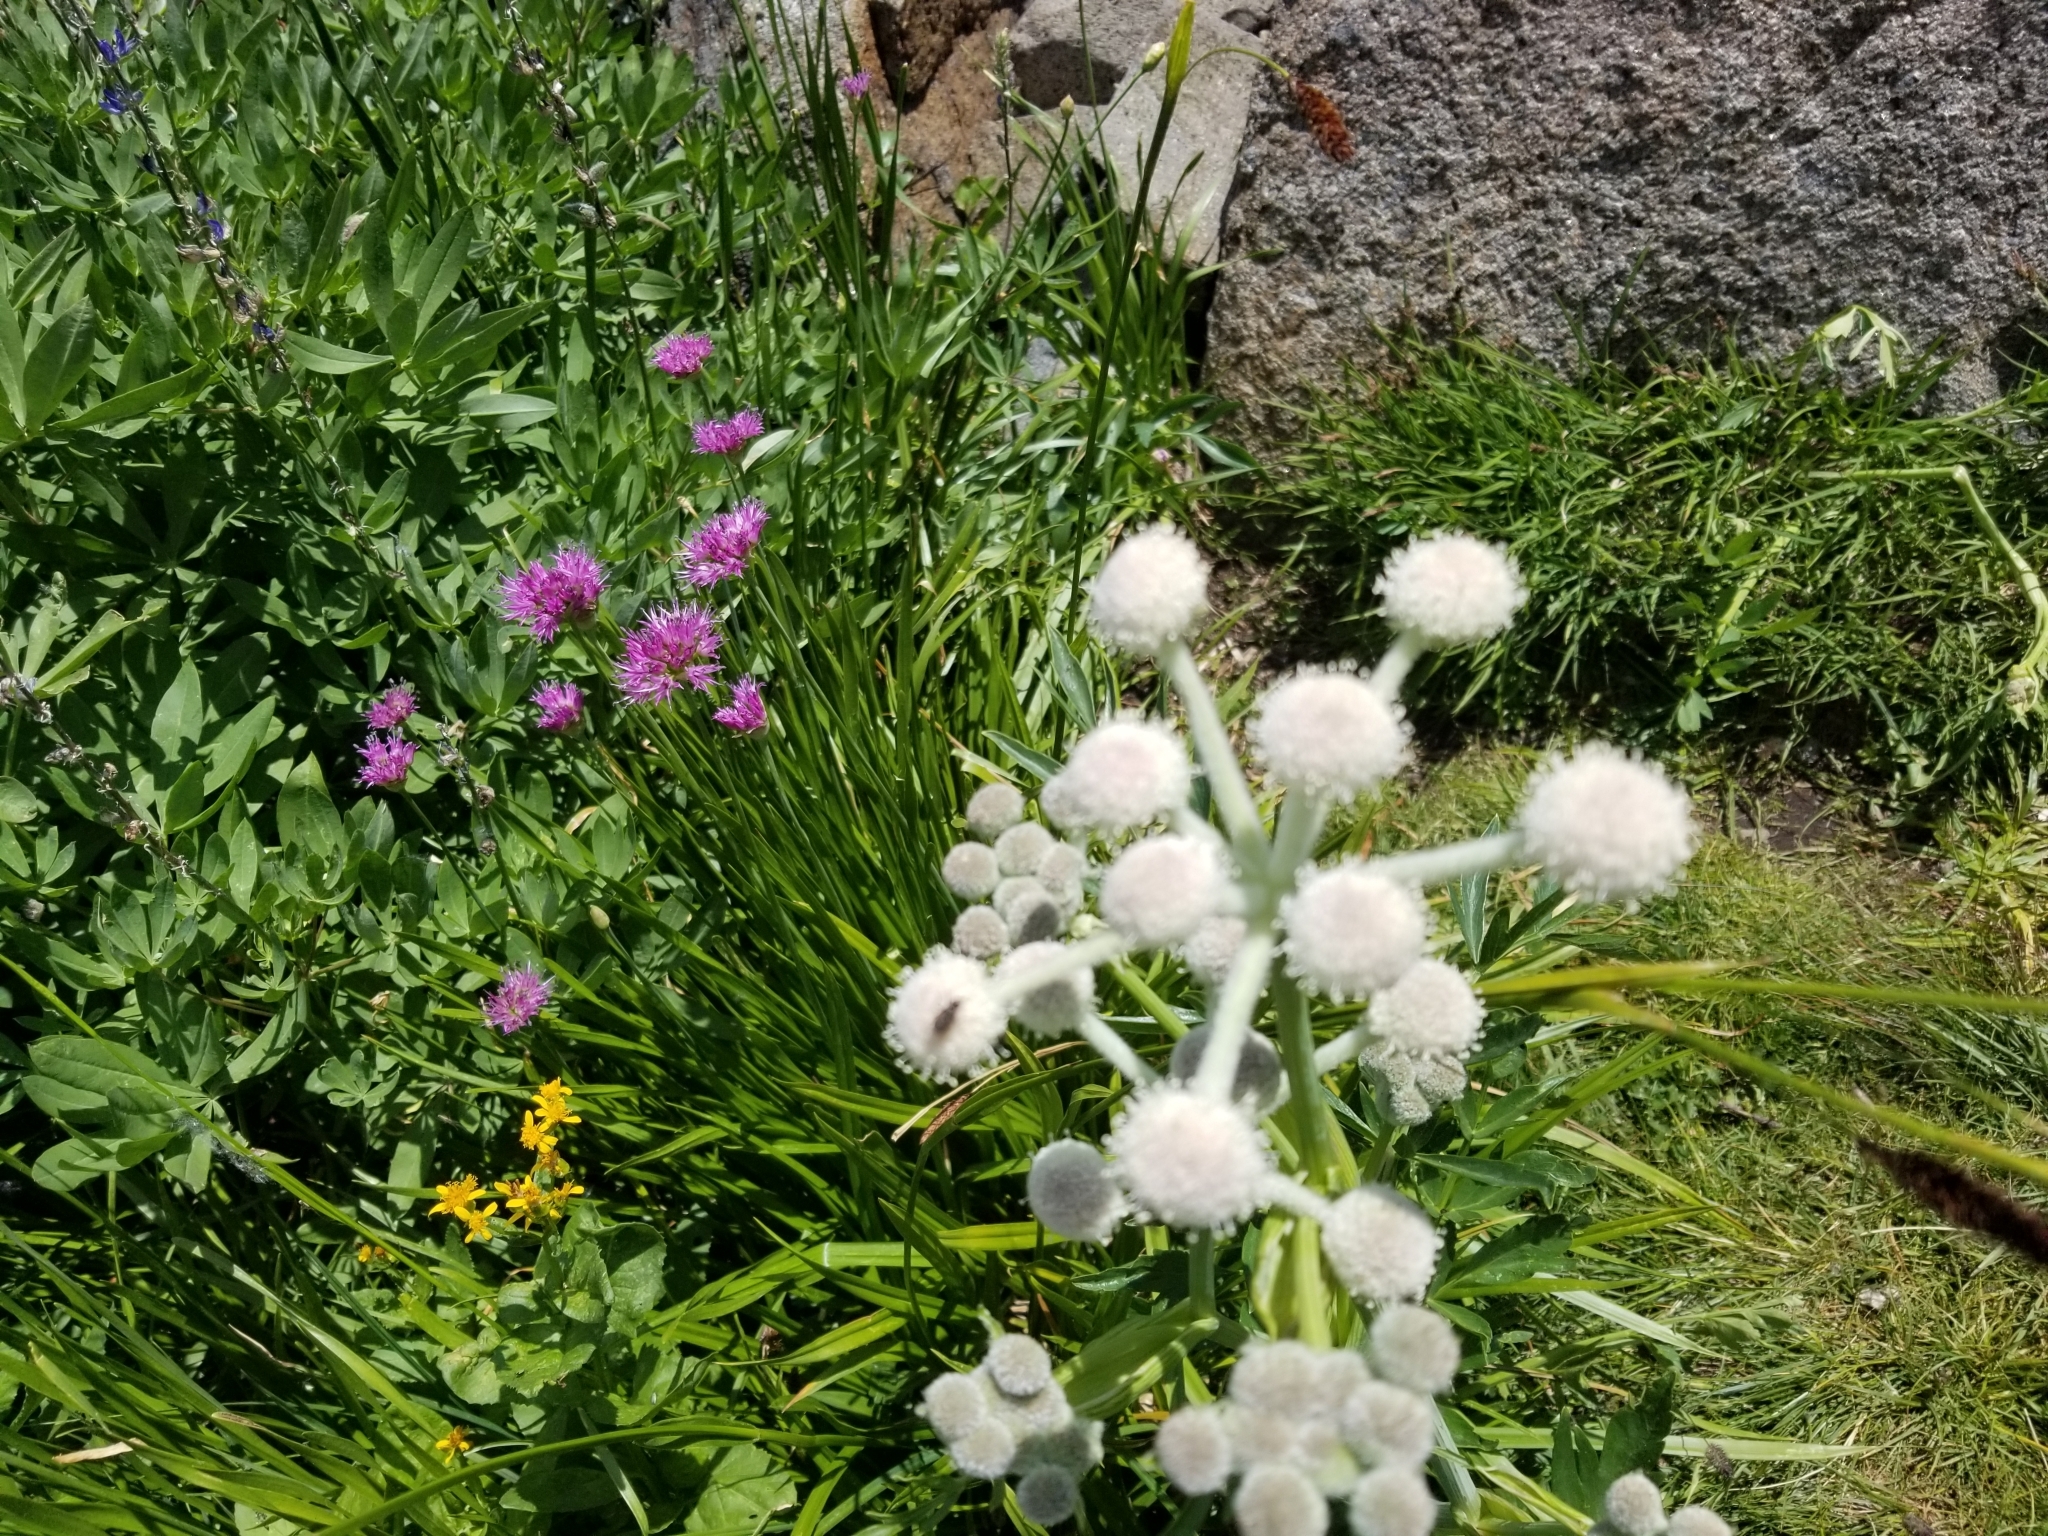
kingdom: Plantae
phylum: Tracheophyta
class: Magnoliopsida
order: Apiales
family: Apiaceae
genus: Angelica
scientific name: Angelica capitellata
